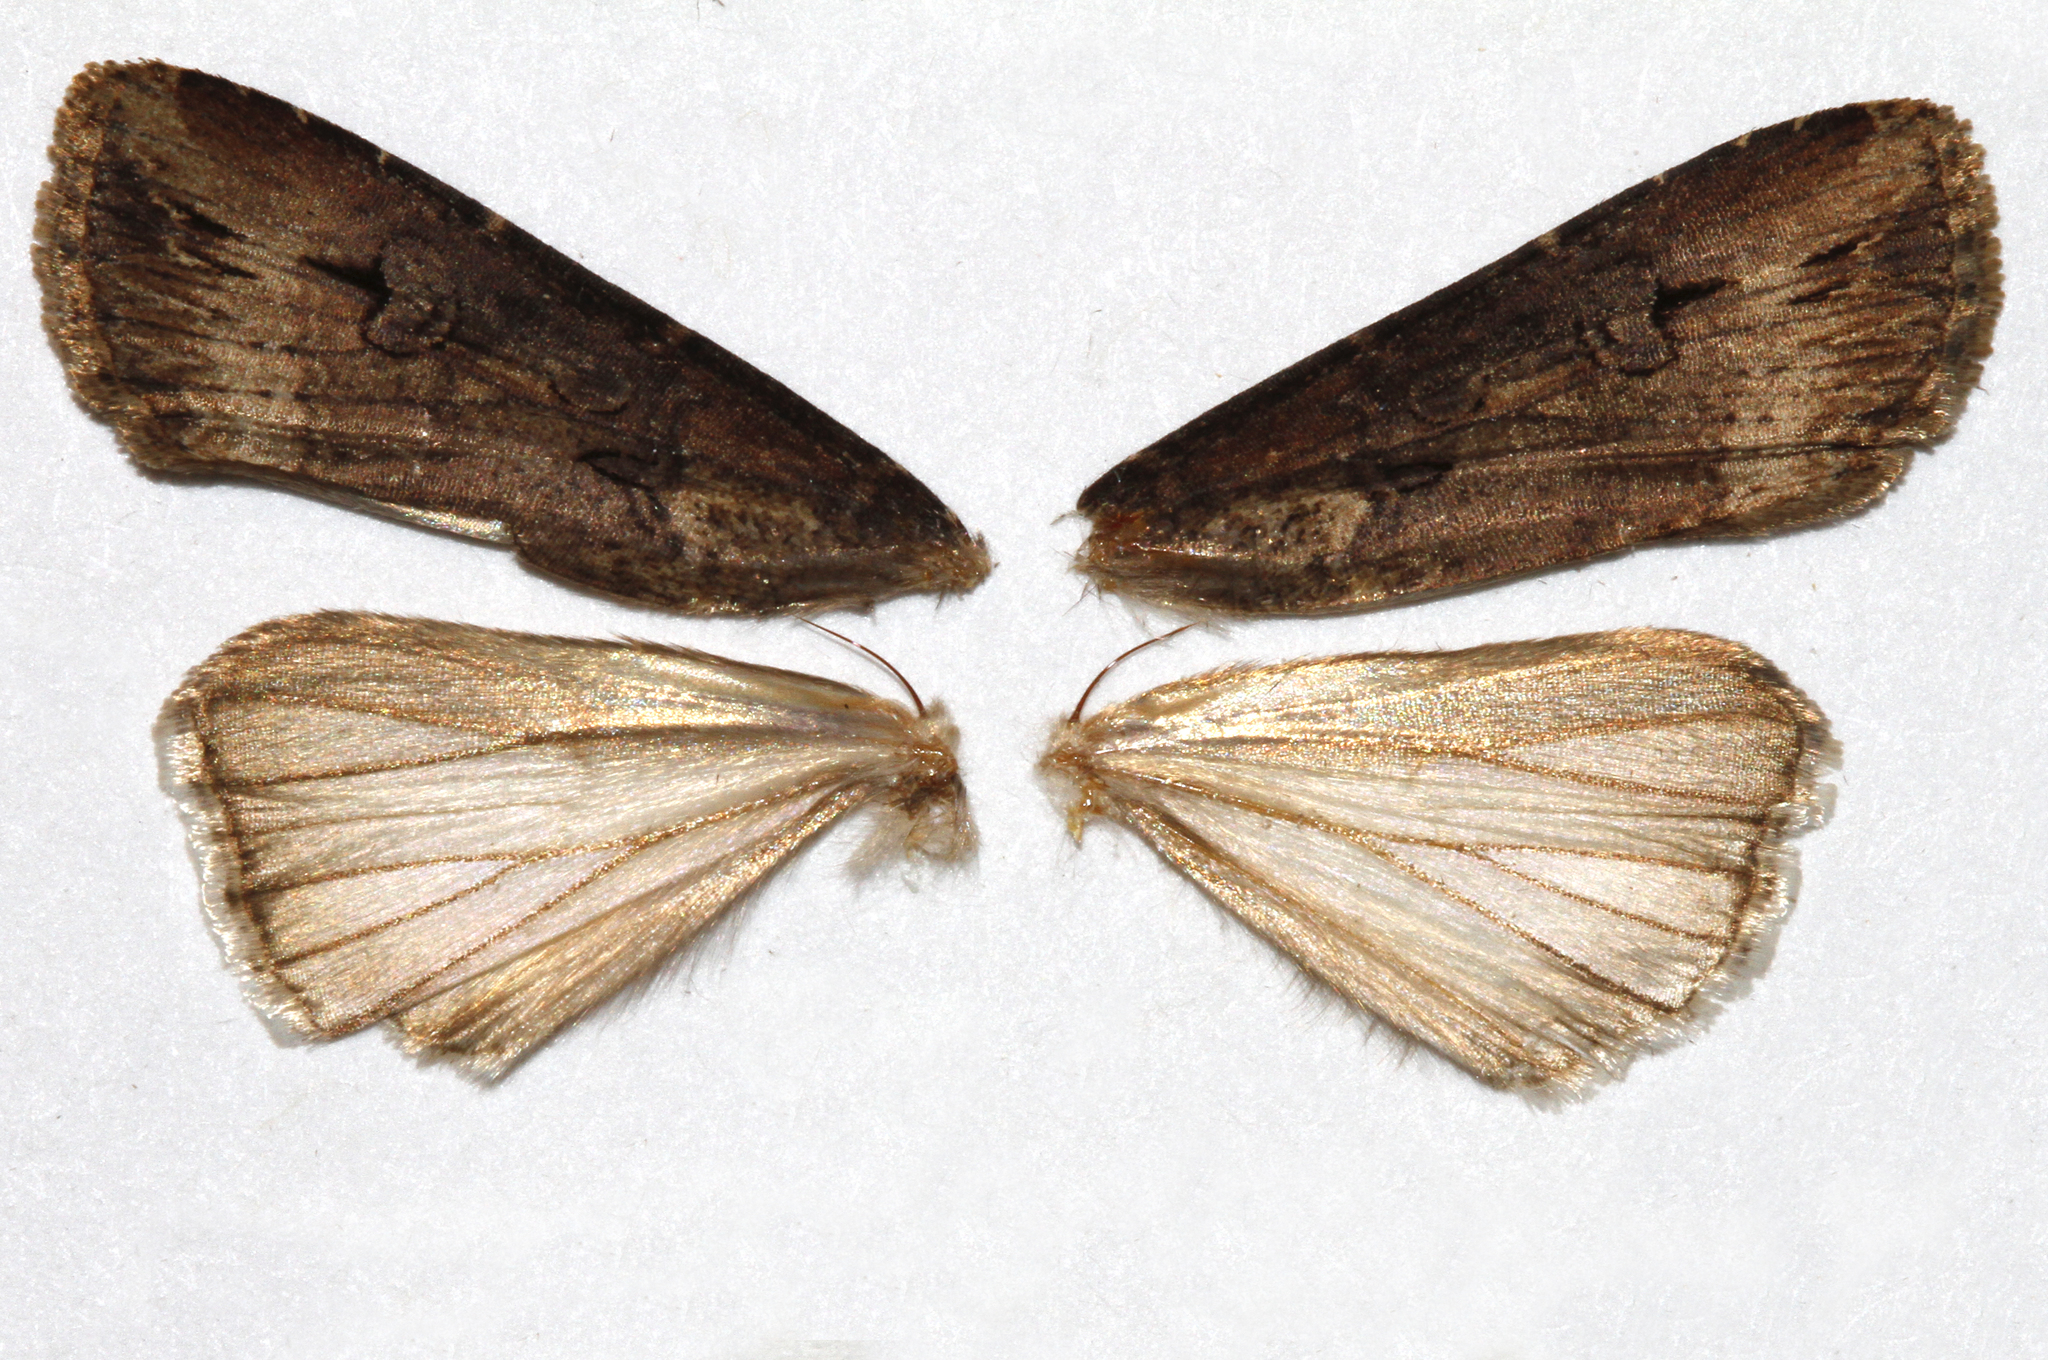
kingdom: Animalia
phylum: Arthropoda
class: Insecta
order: Lepidoptera
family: Noctuidae
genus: Agrotis
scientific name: Agrotis ipsilon
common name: Dark sword-grass
